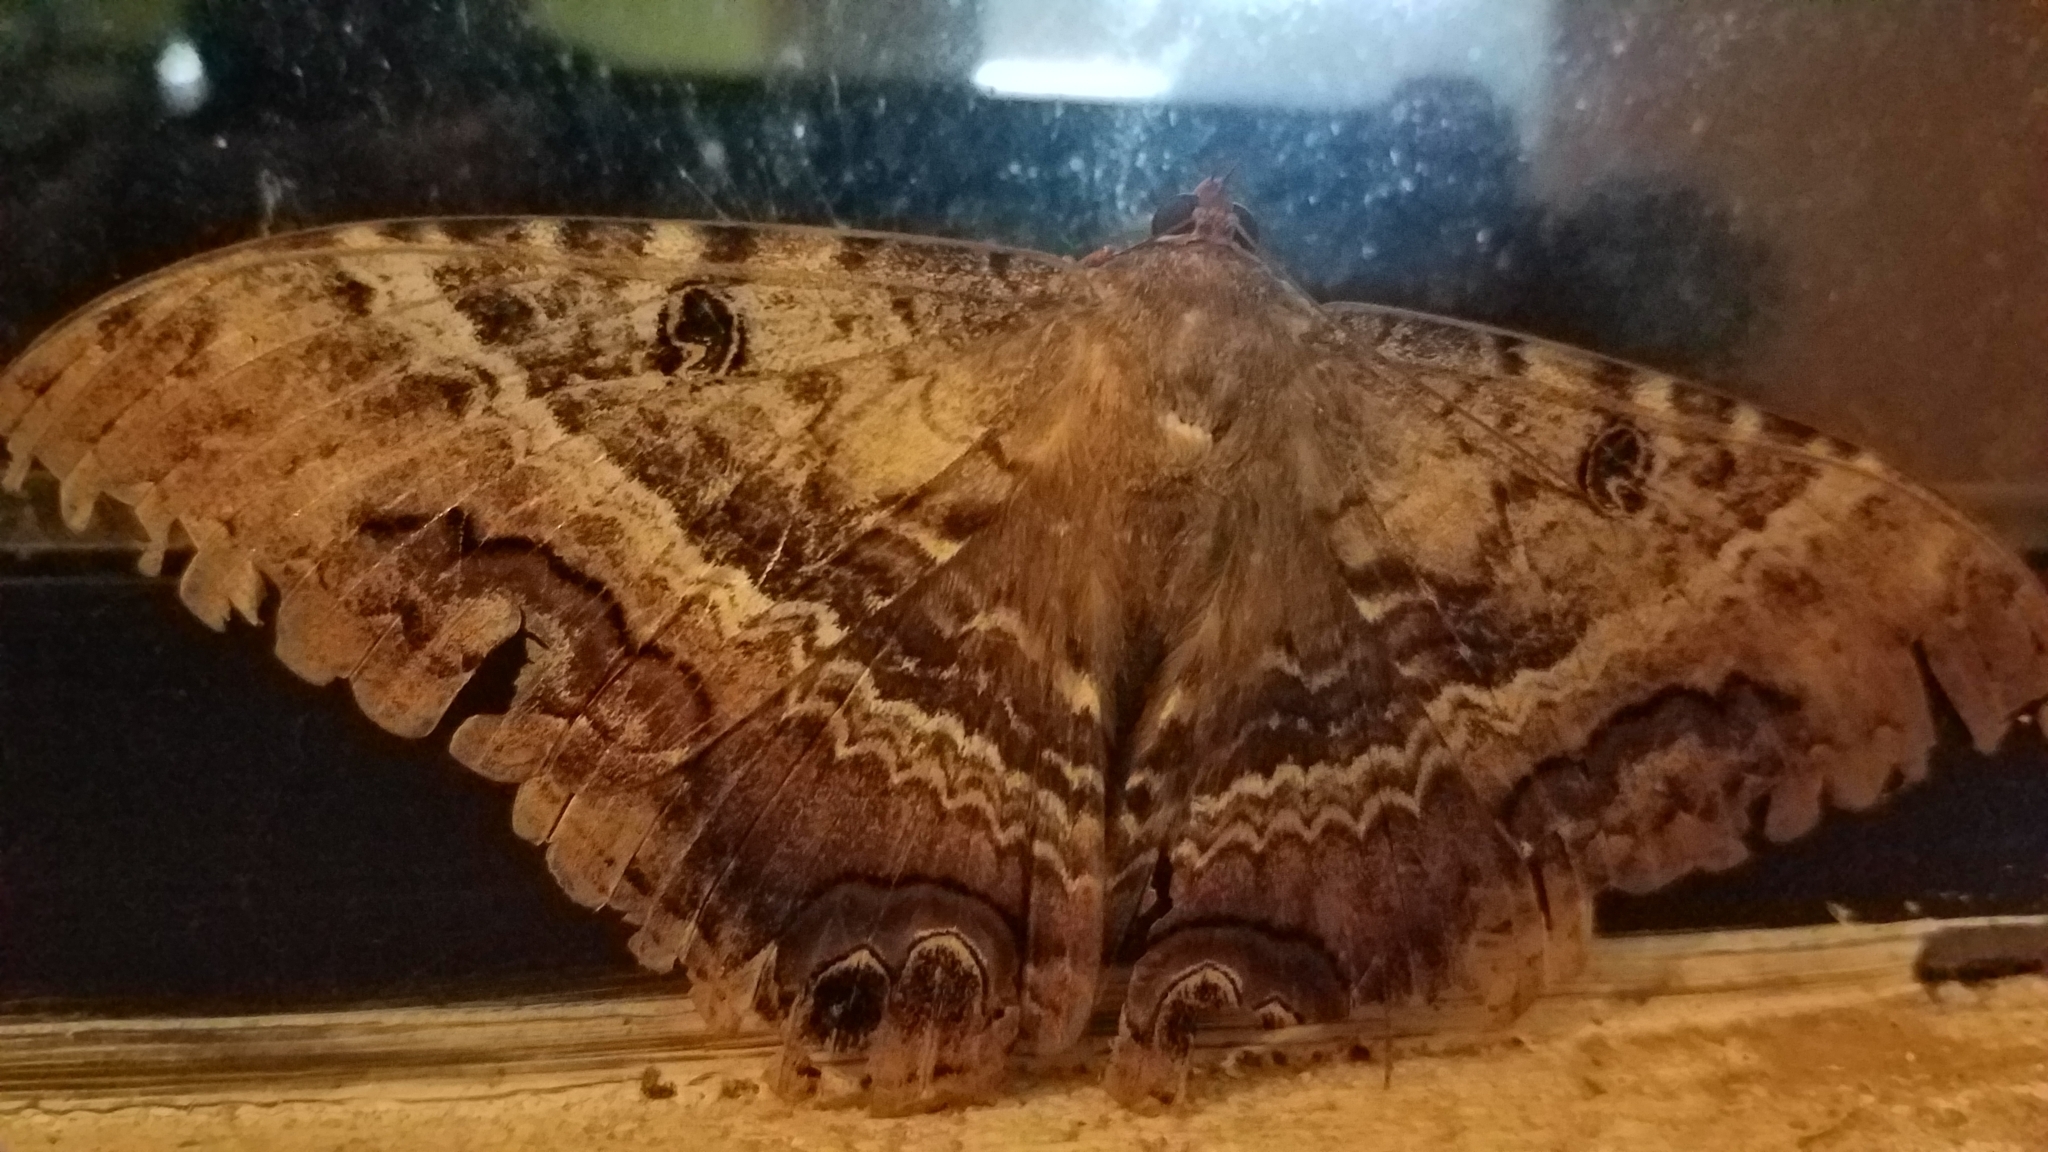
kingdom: Animalia
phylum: Arthropoda
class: Insecta
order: Lepidoptera
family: Erebidae
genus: Ascalapha
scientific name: Ascalapha odorata
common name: Black witch
